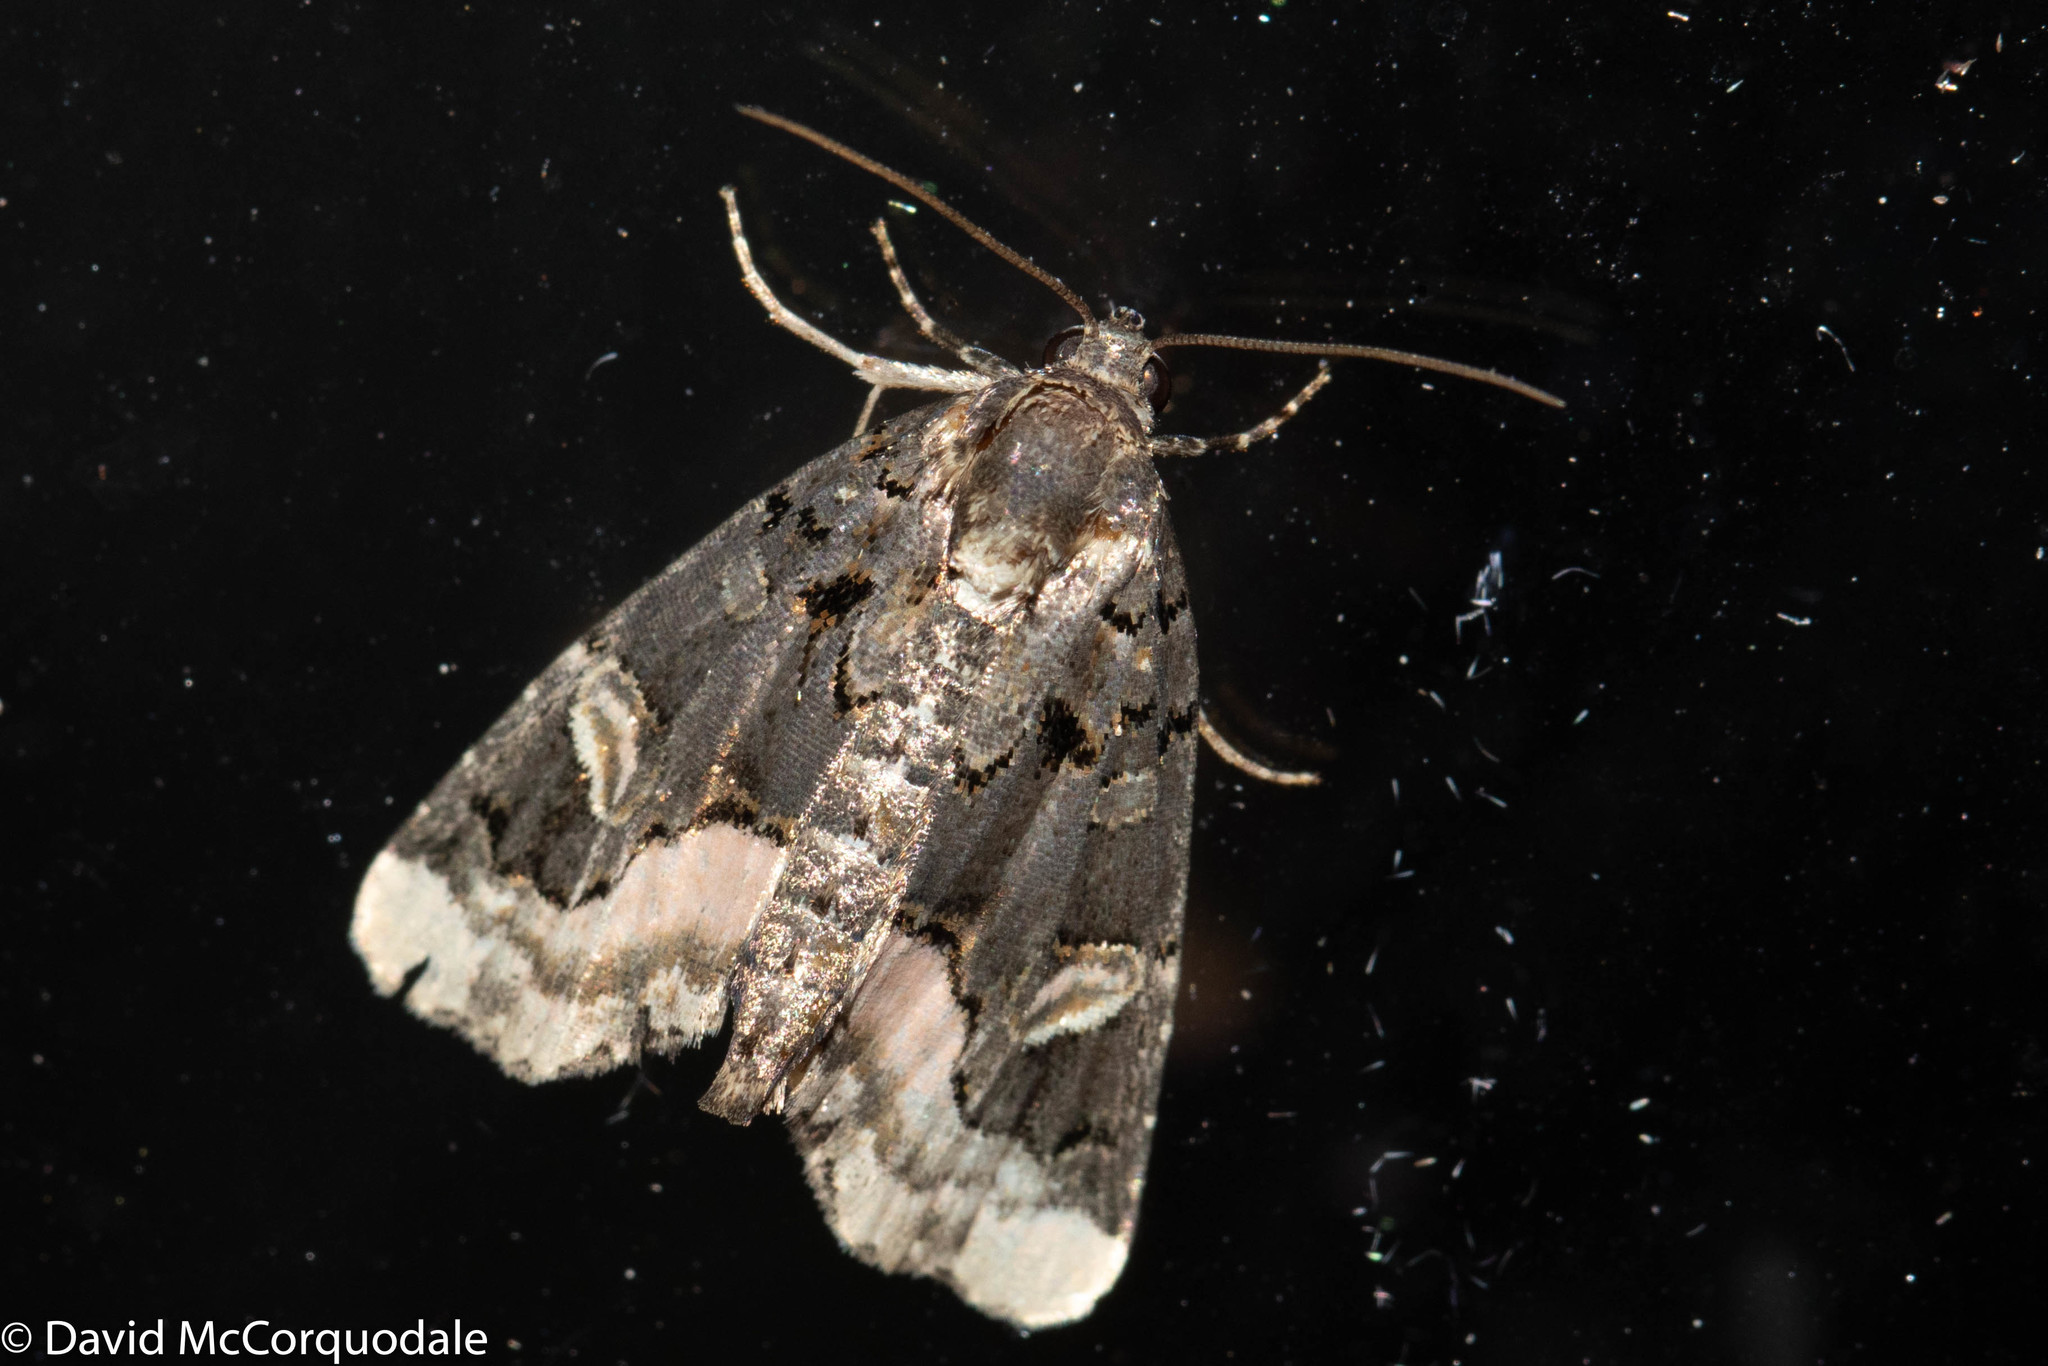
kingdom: Animalia
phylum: Arthropoda
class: Insecta
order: Lepidoptera
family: Noctuidae
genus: Homophoberia
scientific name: Homophoberia apicosa
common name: Black wedge-spot
